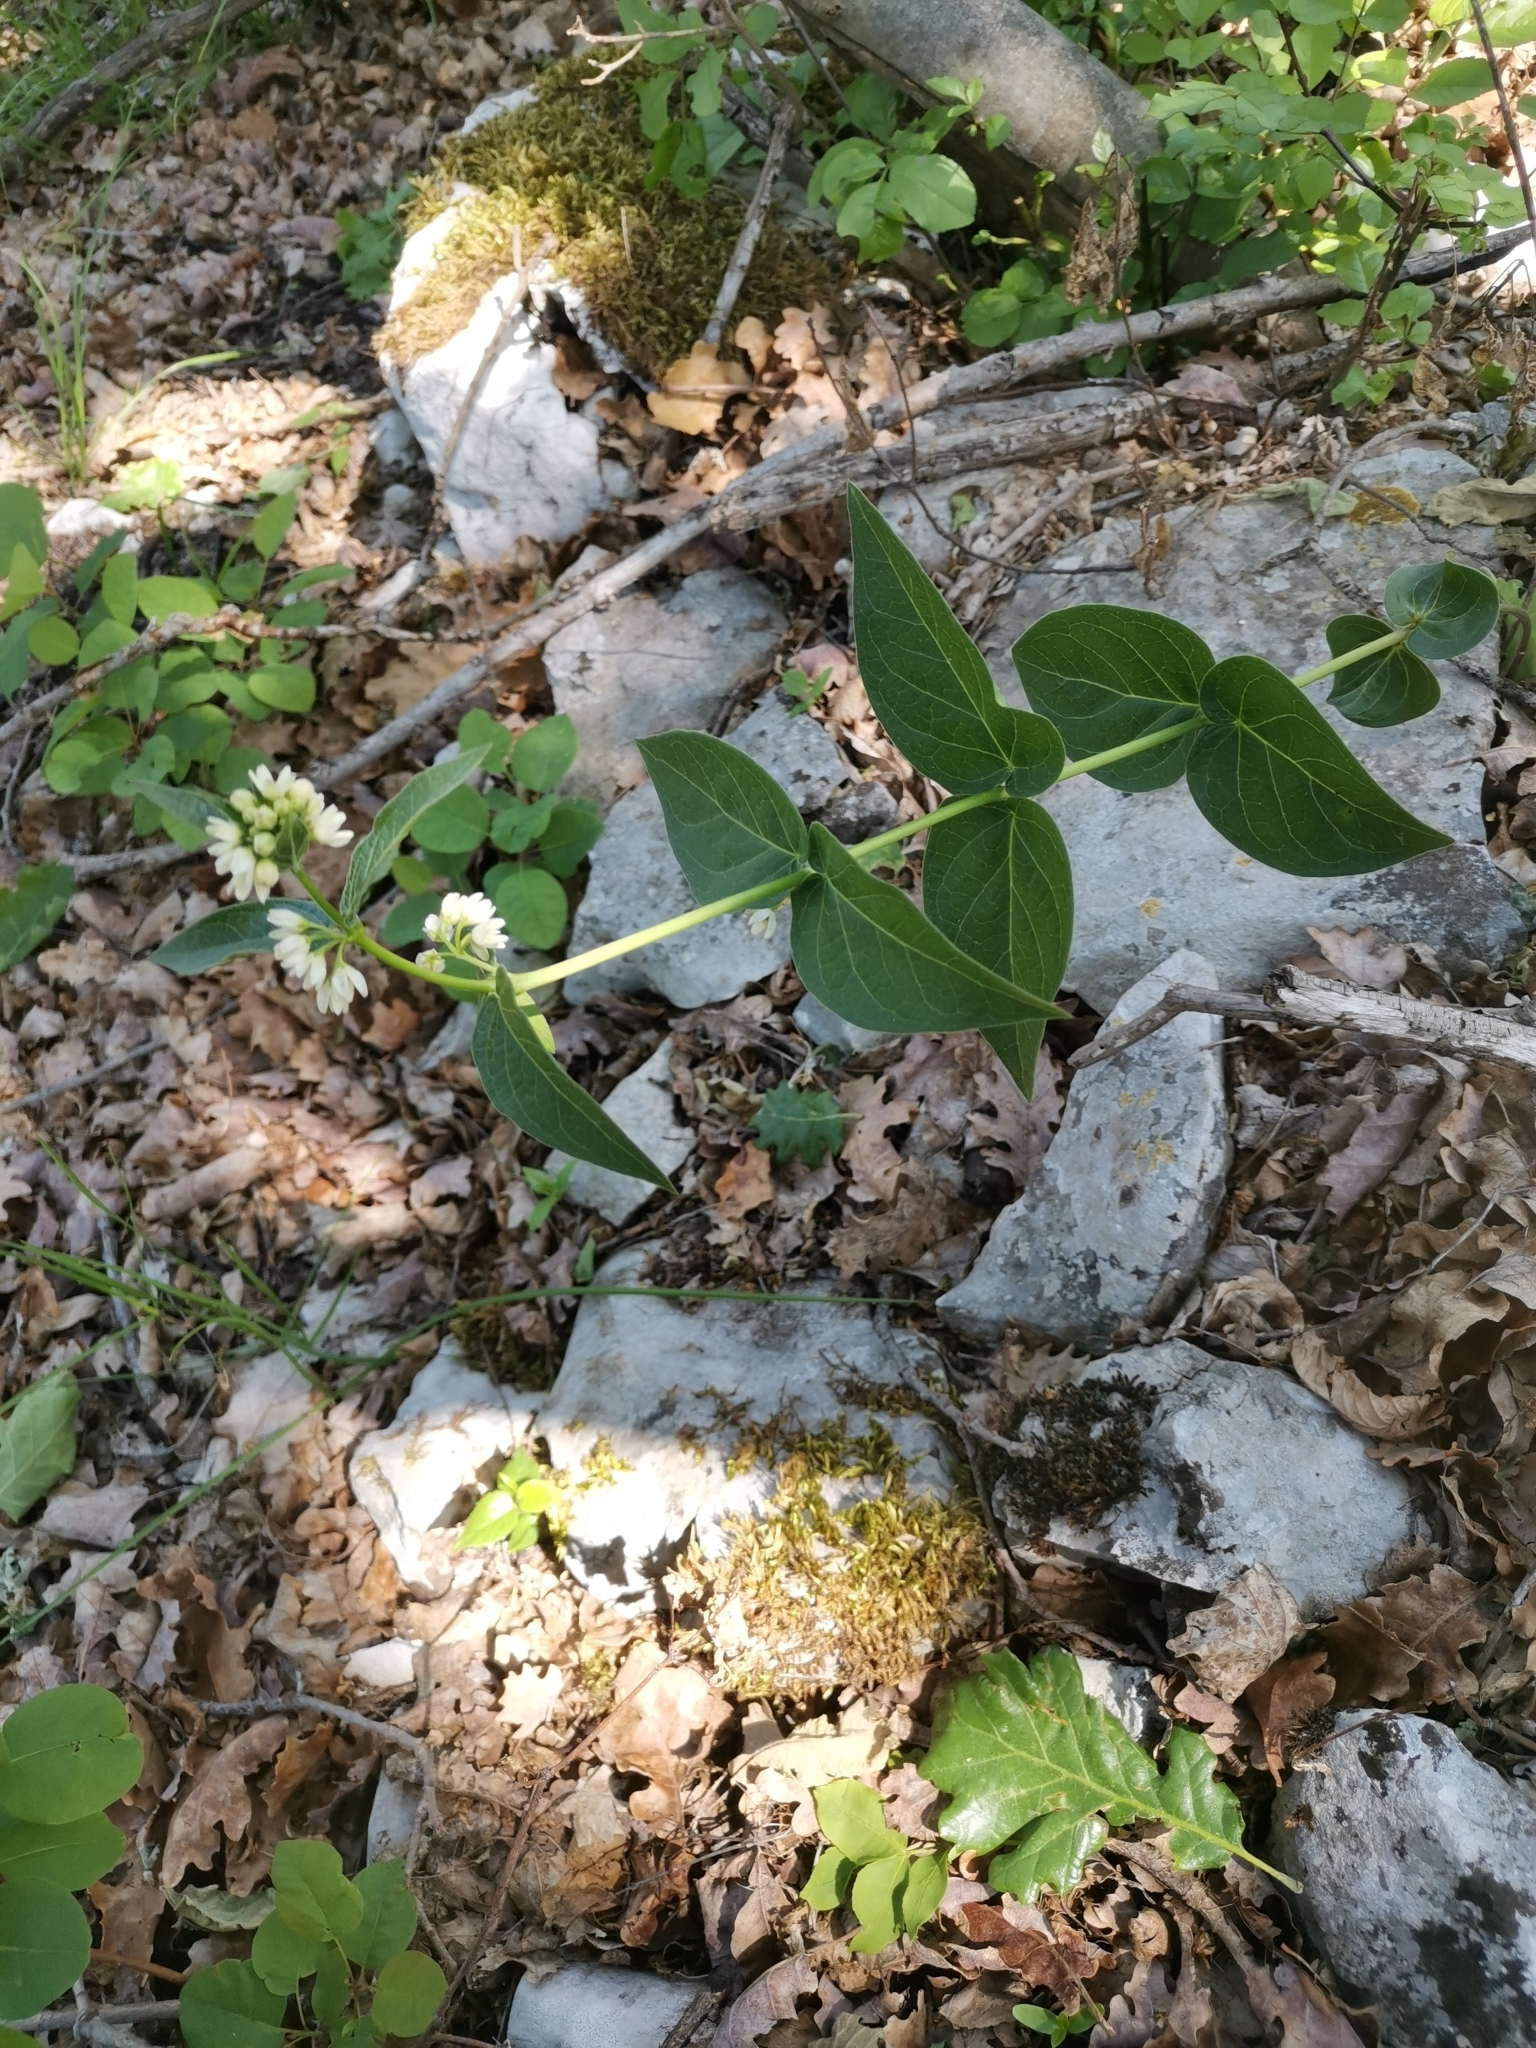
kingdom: Plantae
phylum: Tracheophyta
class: Magnoliopsida
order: Gentianales
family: Apocynaceae
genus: Vincetoxicum
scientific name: Vincetoxicum hirundinaria
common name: White swallowwort
